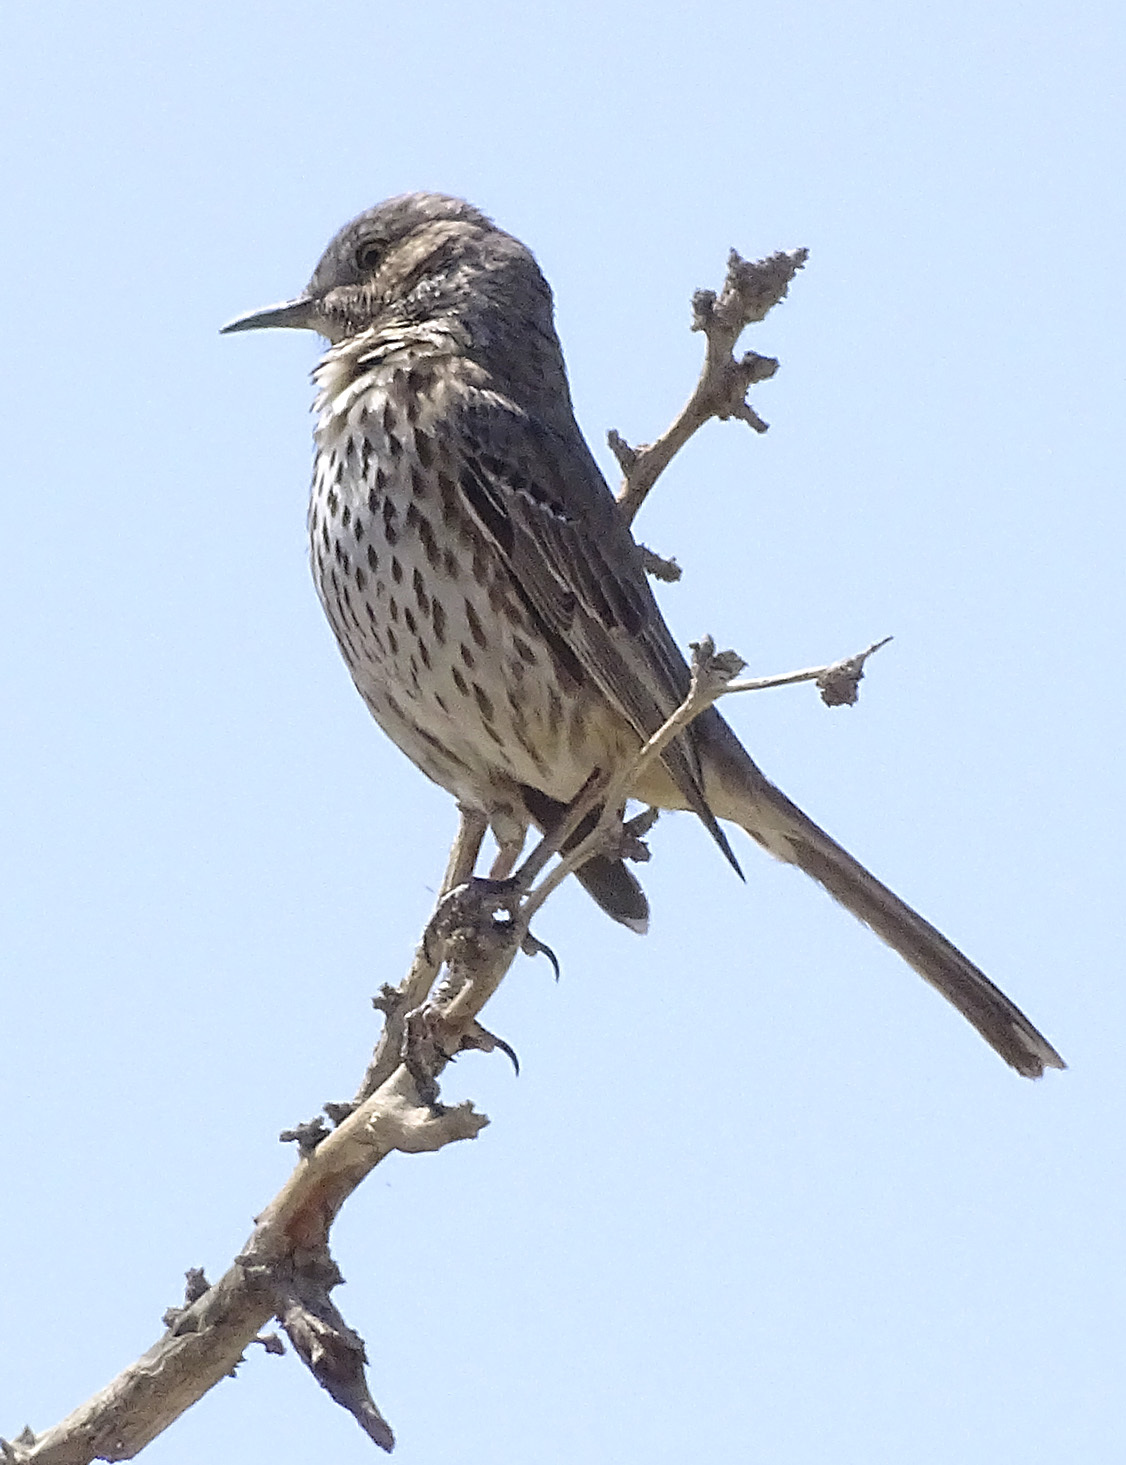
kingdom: Animalia
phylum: Chordata
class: Aves
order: Passeriformes
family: Mimidae
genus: Oreoscoptes
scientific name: Oreoscoptes montanus
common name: Sage thrasher
